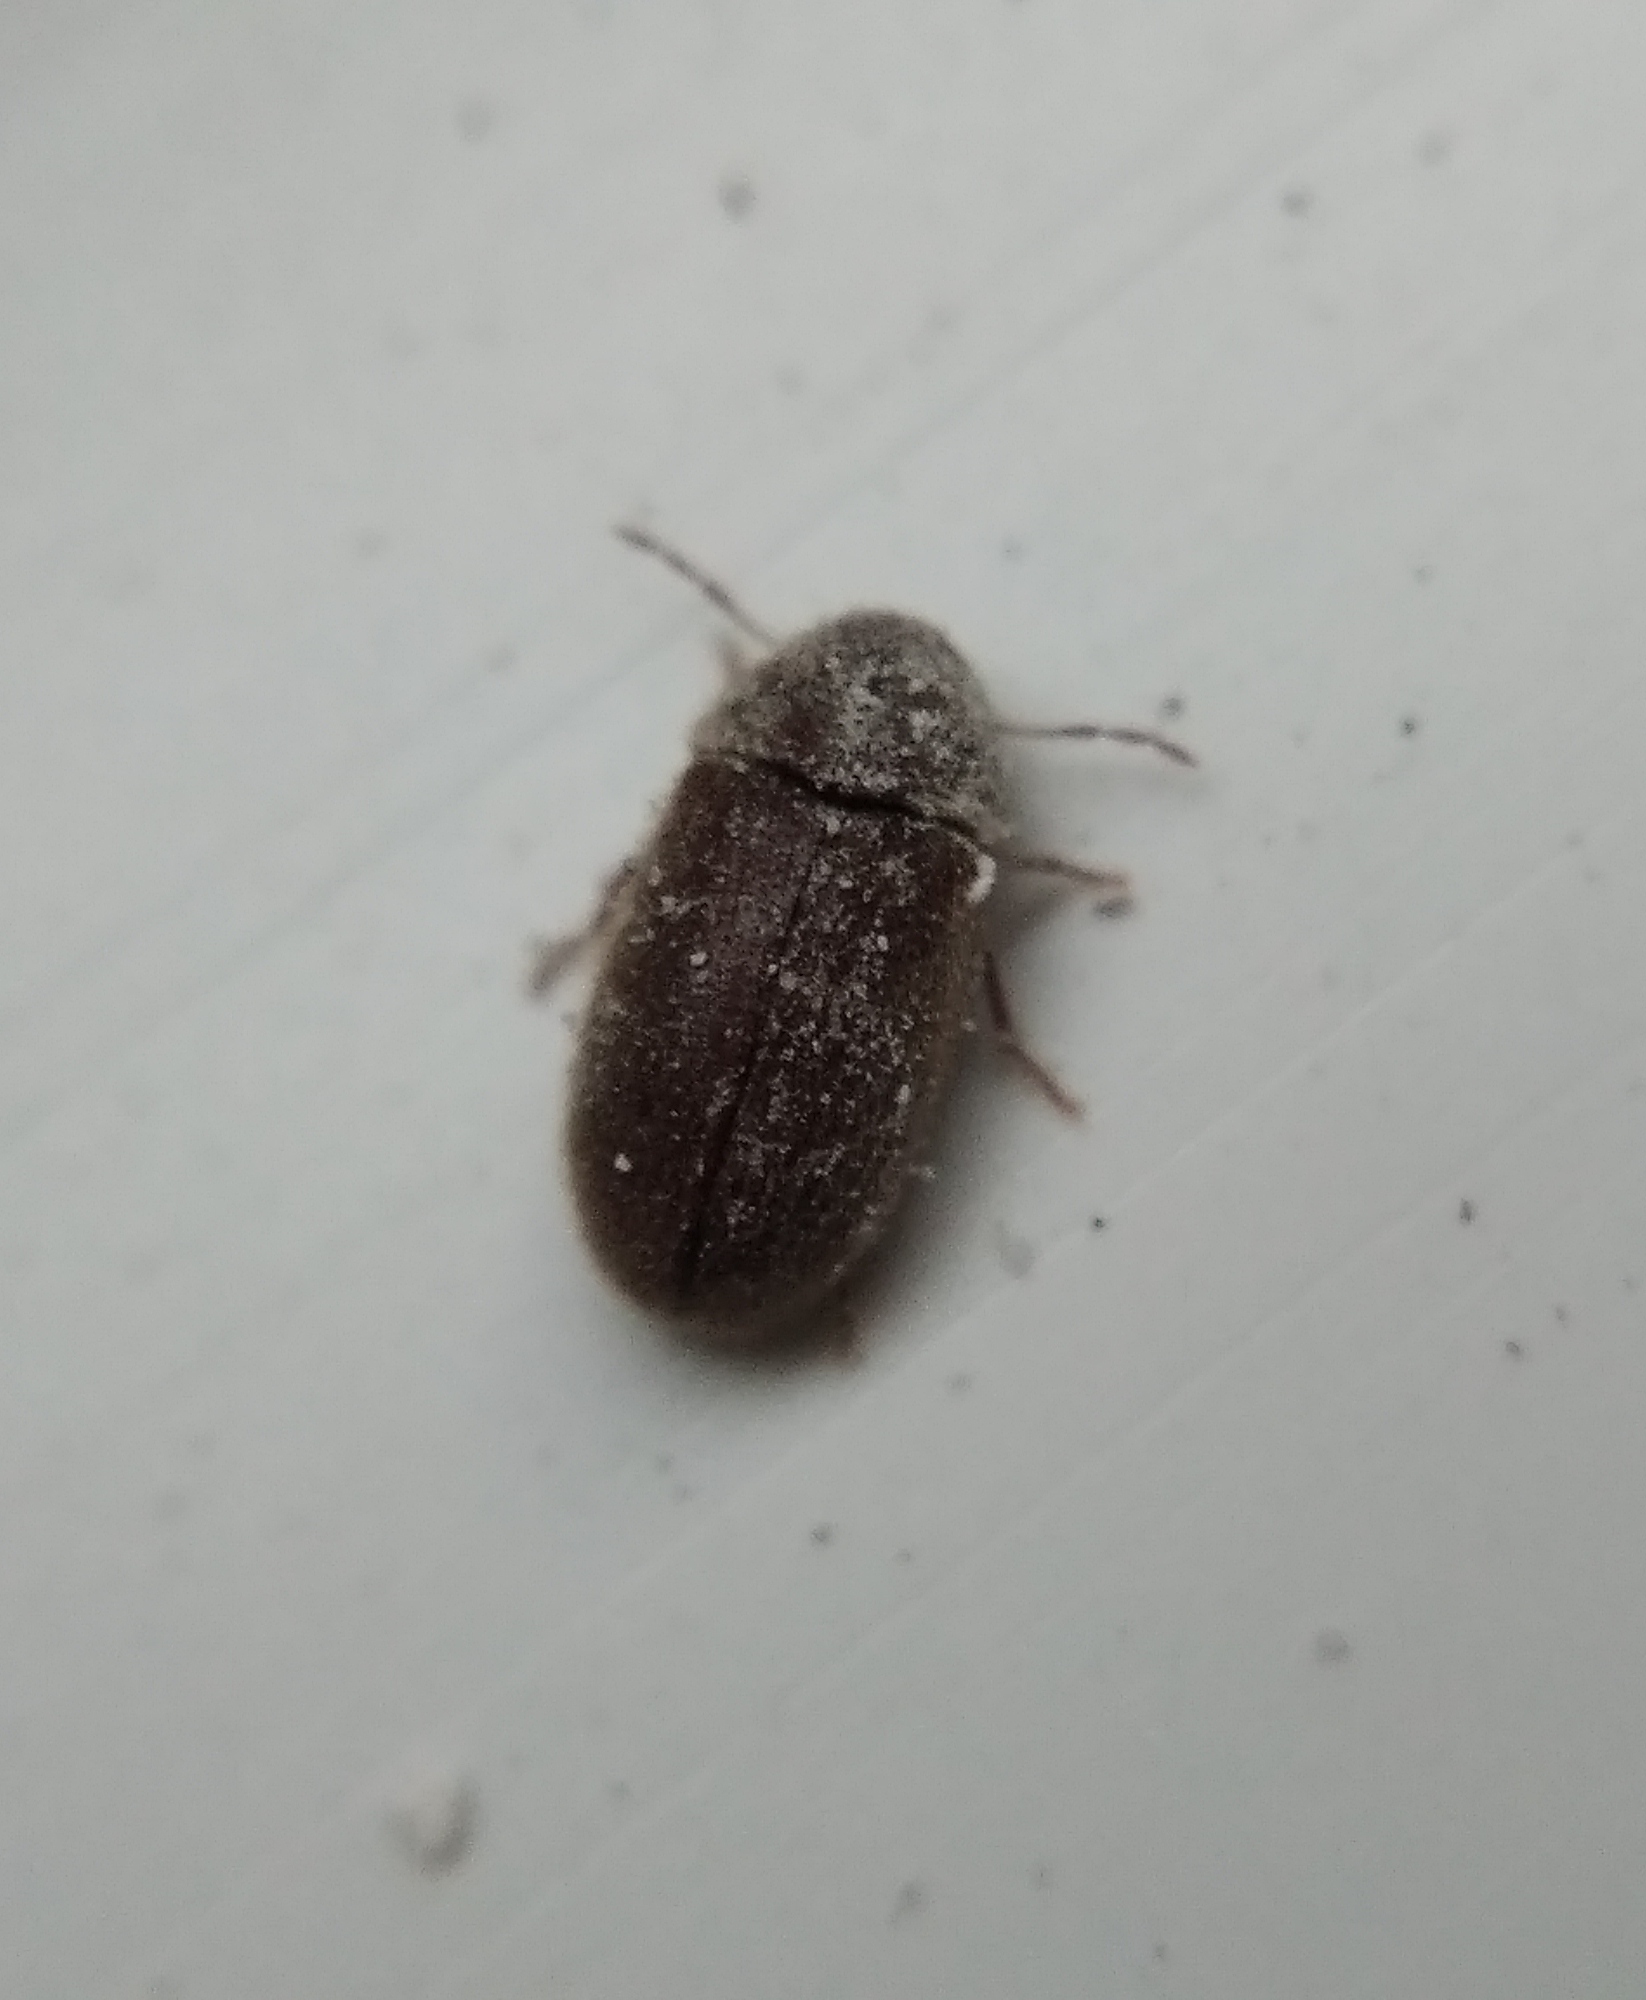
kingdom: Animalia
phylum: Arthropoda
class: Insecta
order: Coleoptera
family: Anobiidae
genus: Stegobium
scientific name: Stegobium paniceum
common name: Drugstore beetle
